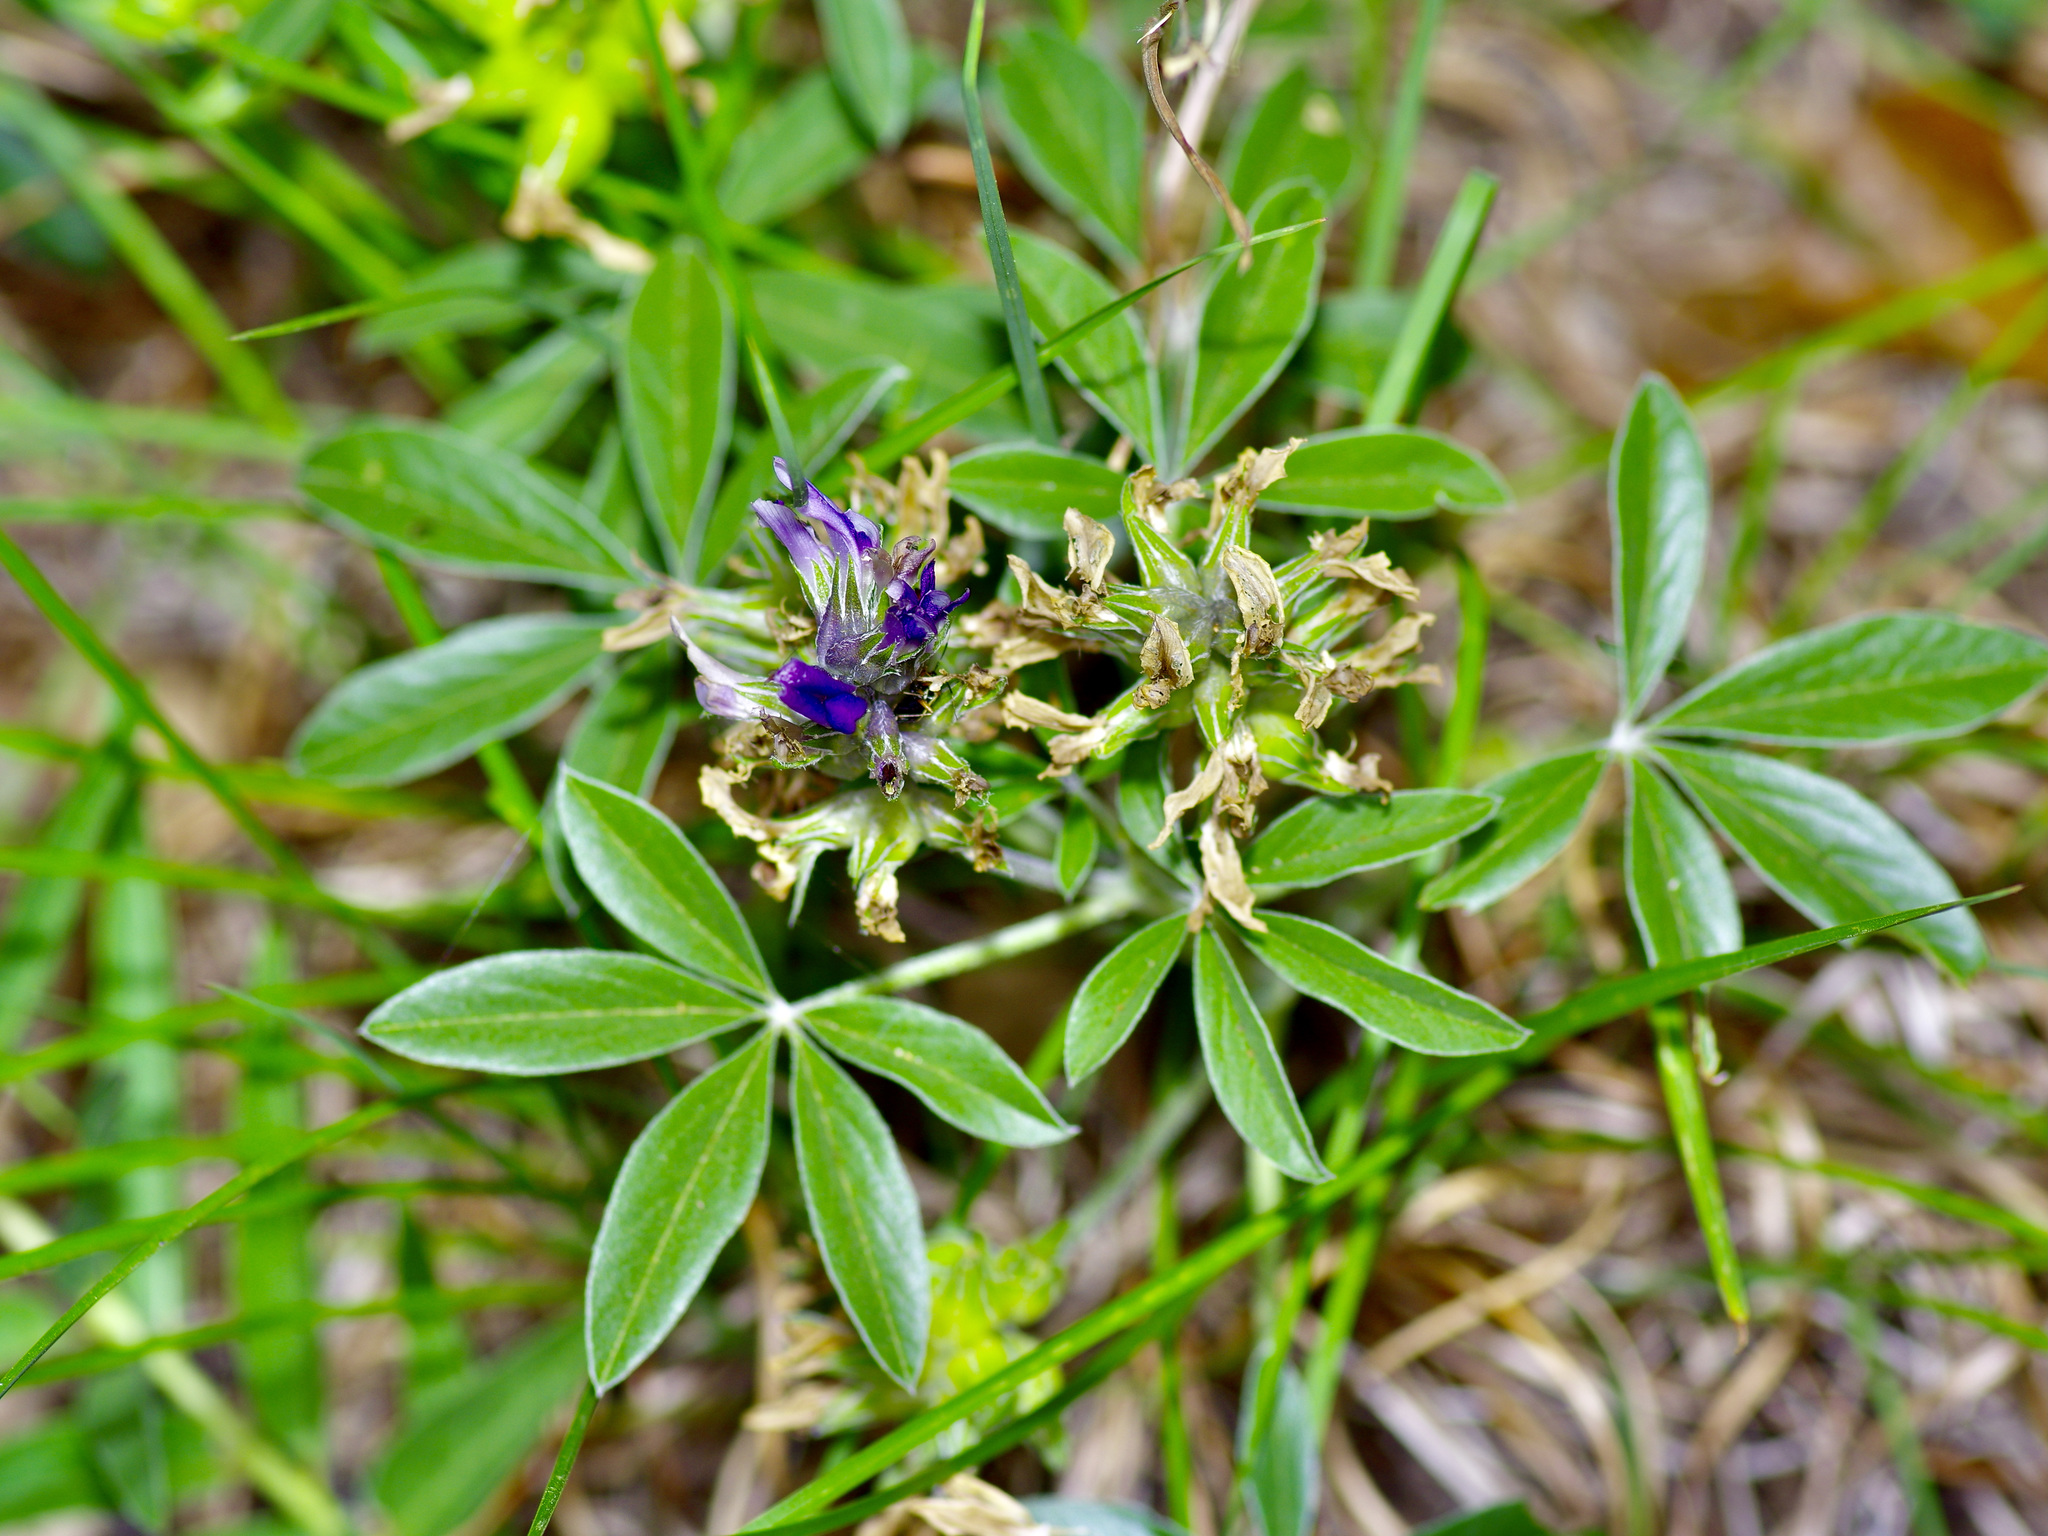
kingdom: Plantae
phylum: Tracheophyta
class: Magnoliopsida
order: Fabales
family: Fabaceae
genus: Pediomelum
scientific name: Pediomelum latestipulatum
